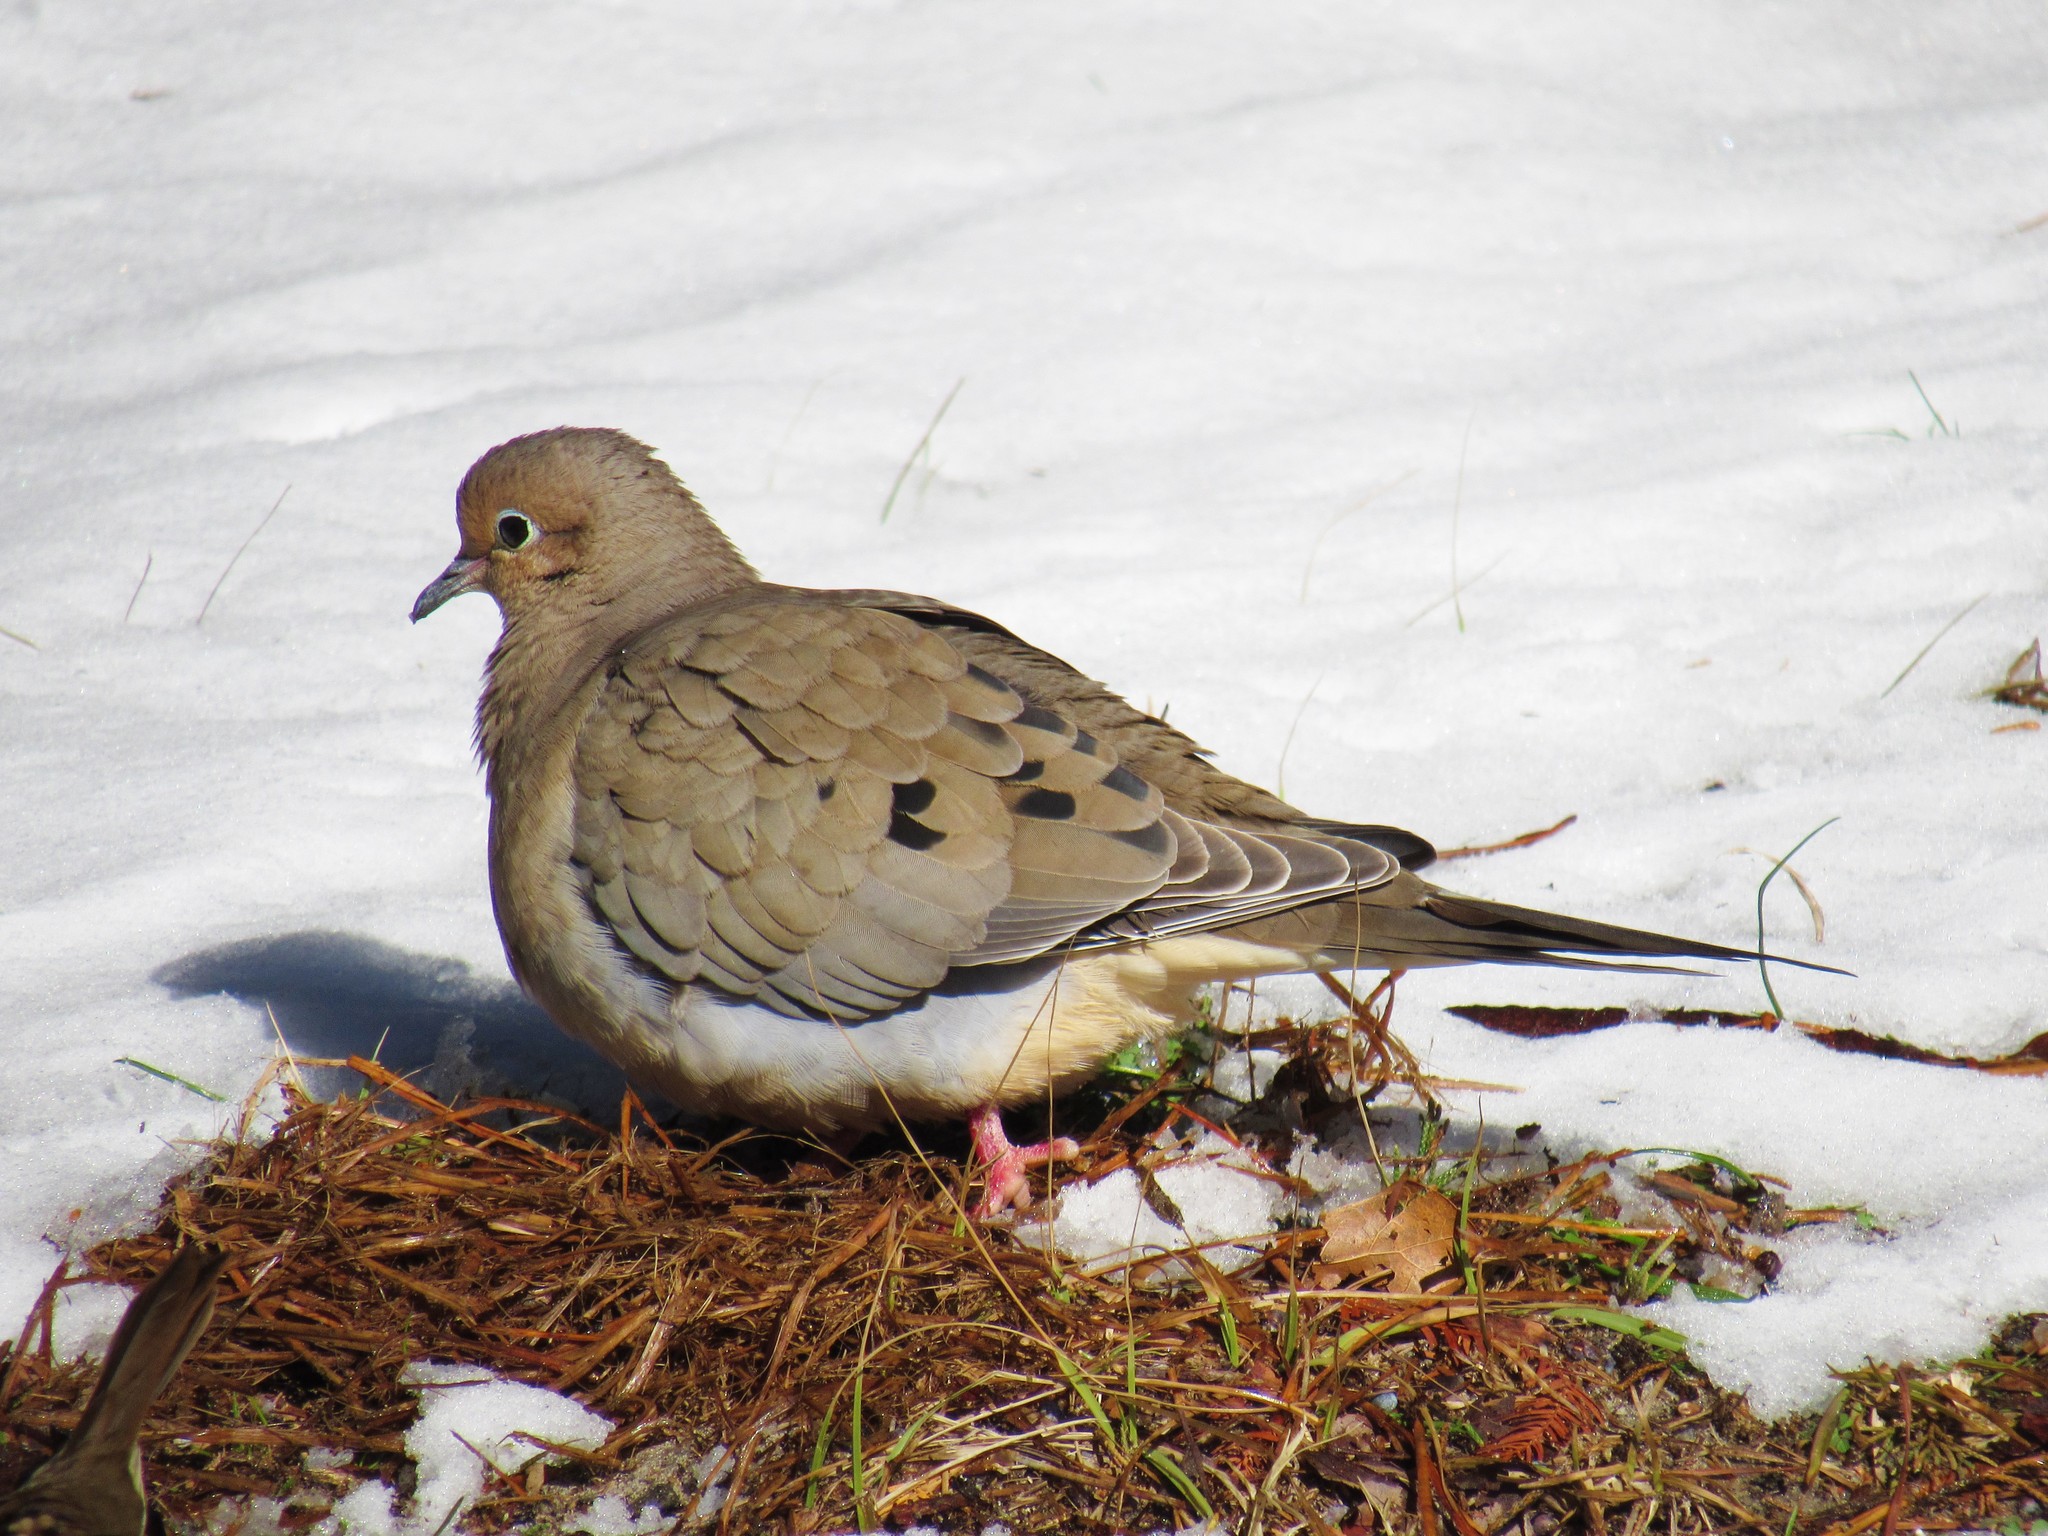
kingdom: Animalia
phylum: Chordata
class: Aves
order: Columbiformes
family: Columbidae
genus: Zenaida
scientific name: Zenaida macroura
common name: Mourning dove
